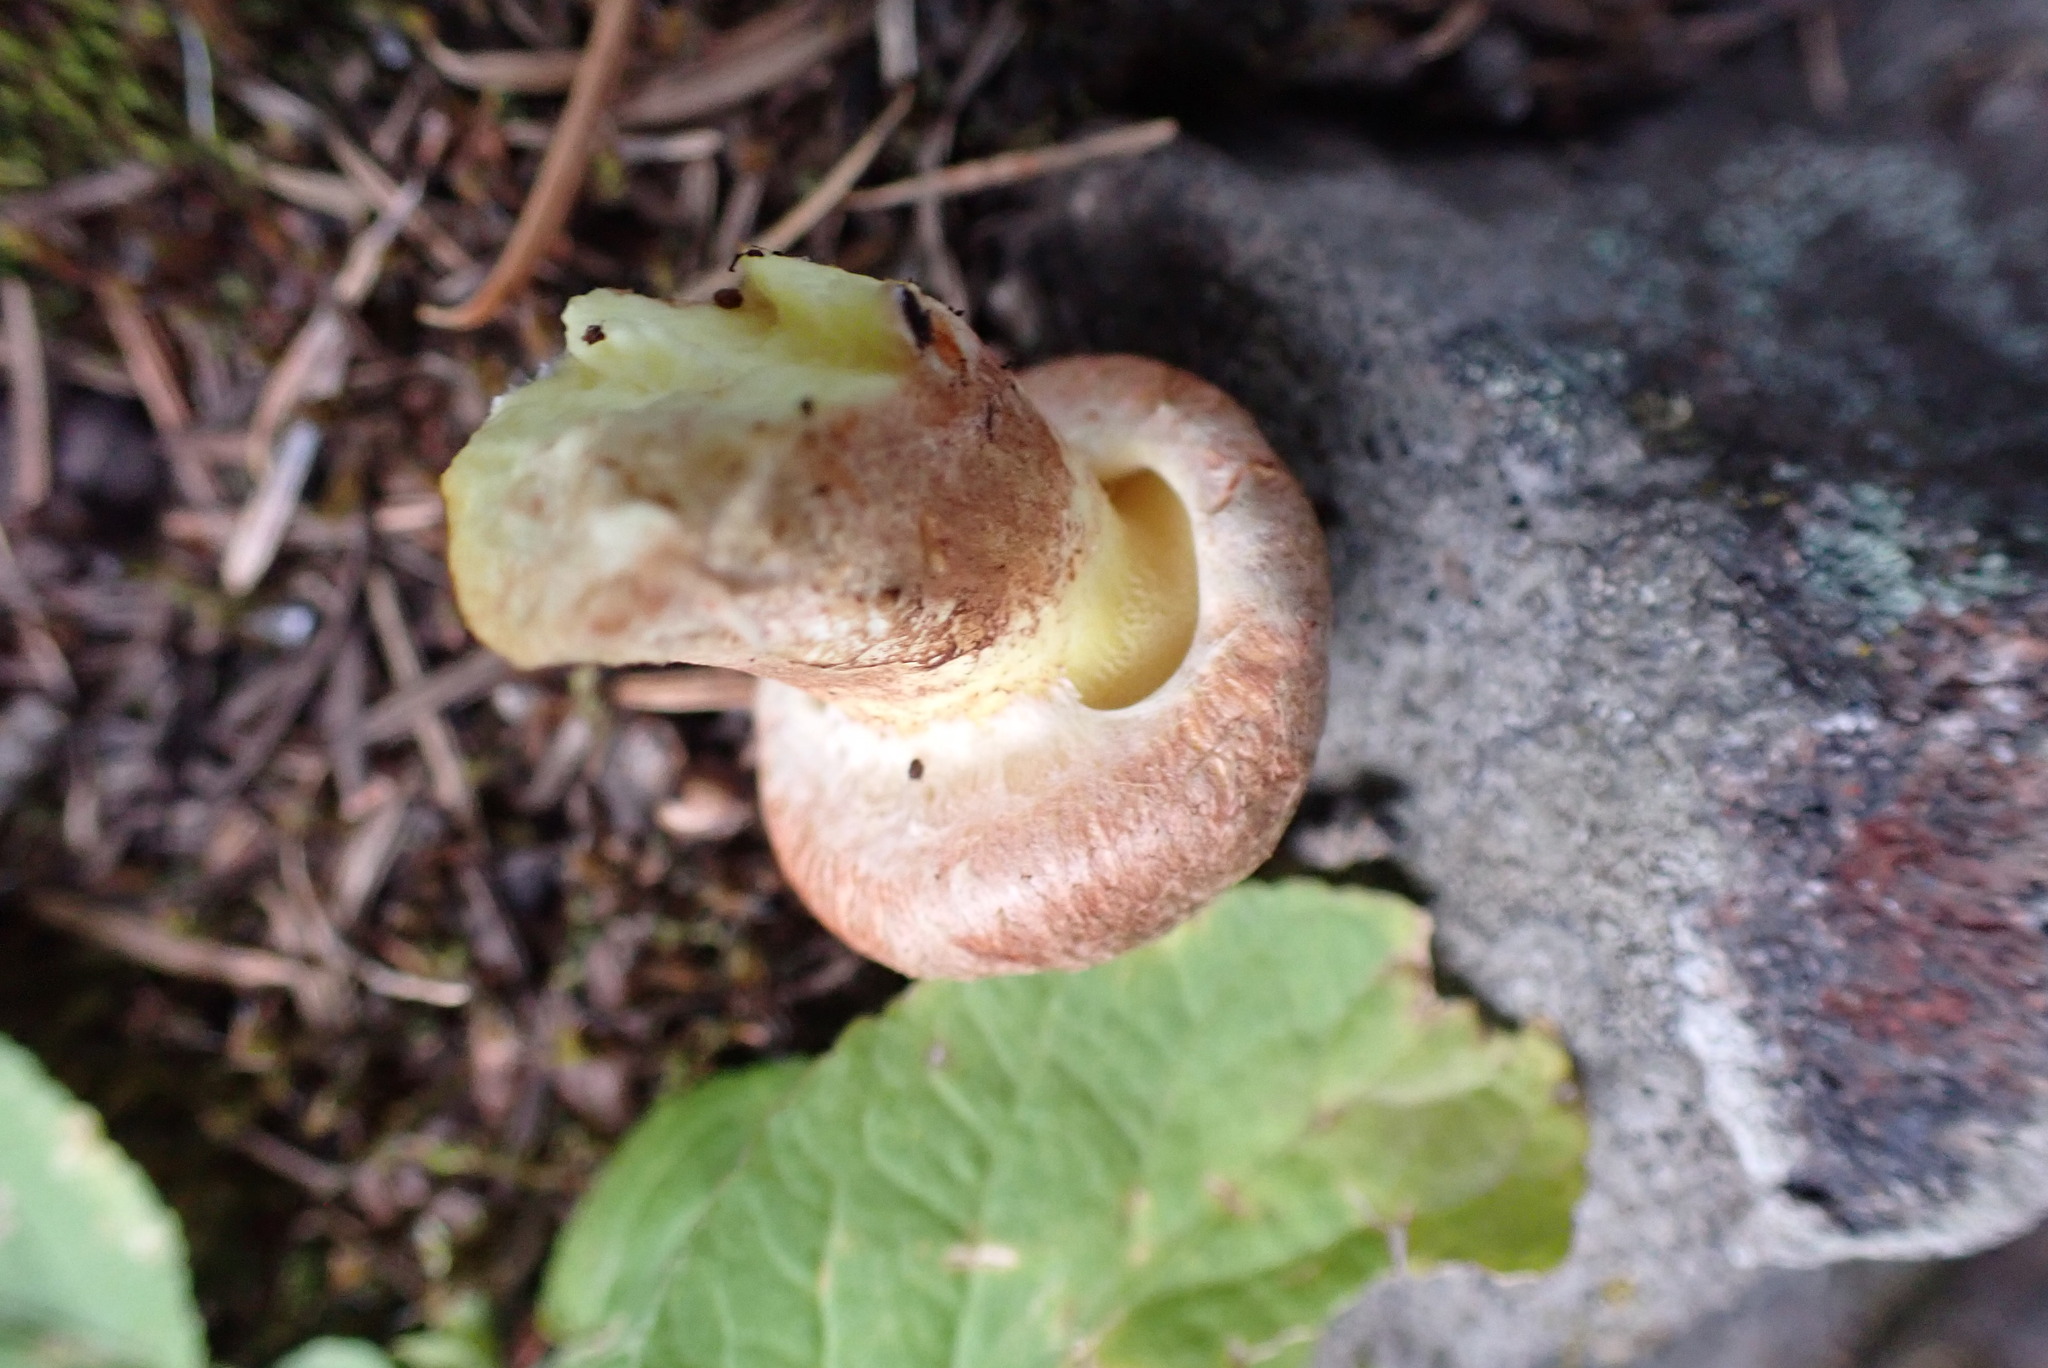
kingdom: Fungi
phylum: Basidiomycota
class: Agaricomycetes
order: Boletales
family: Suillaceae
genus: Suillus
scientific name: Suillus lakei
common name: Western painted suillus
